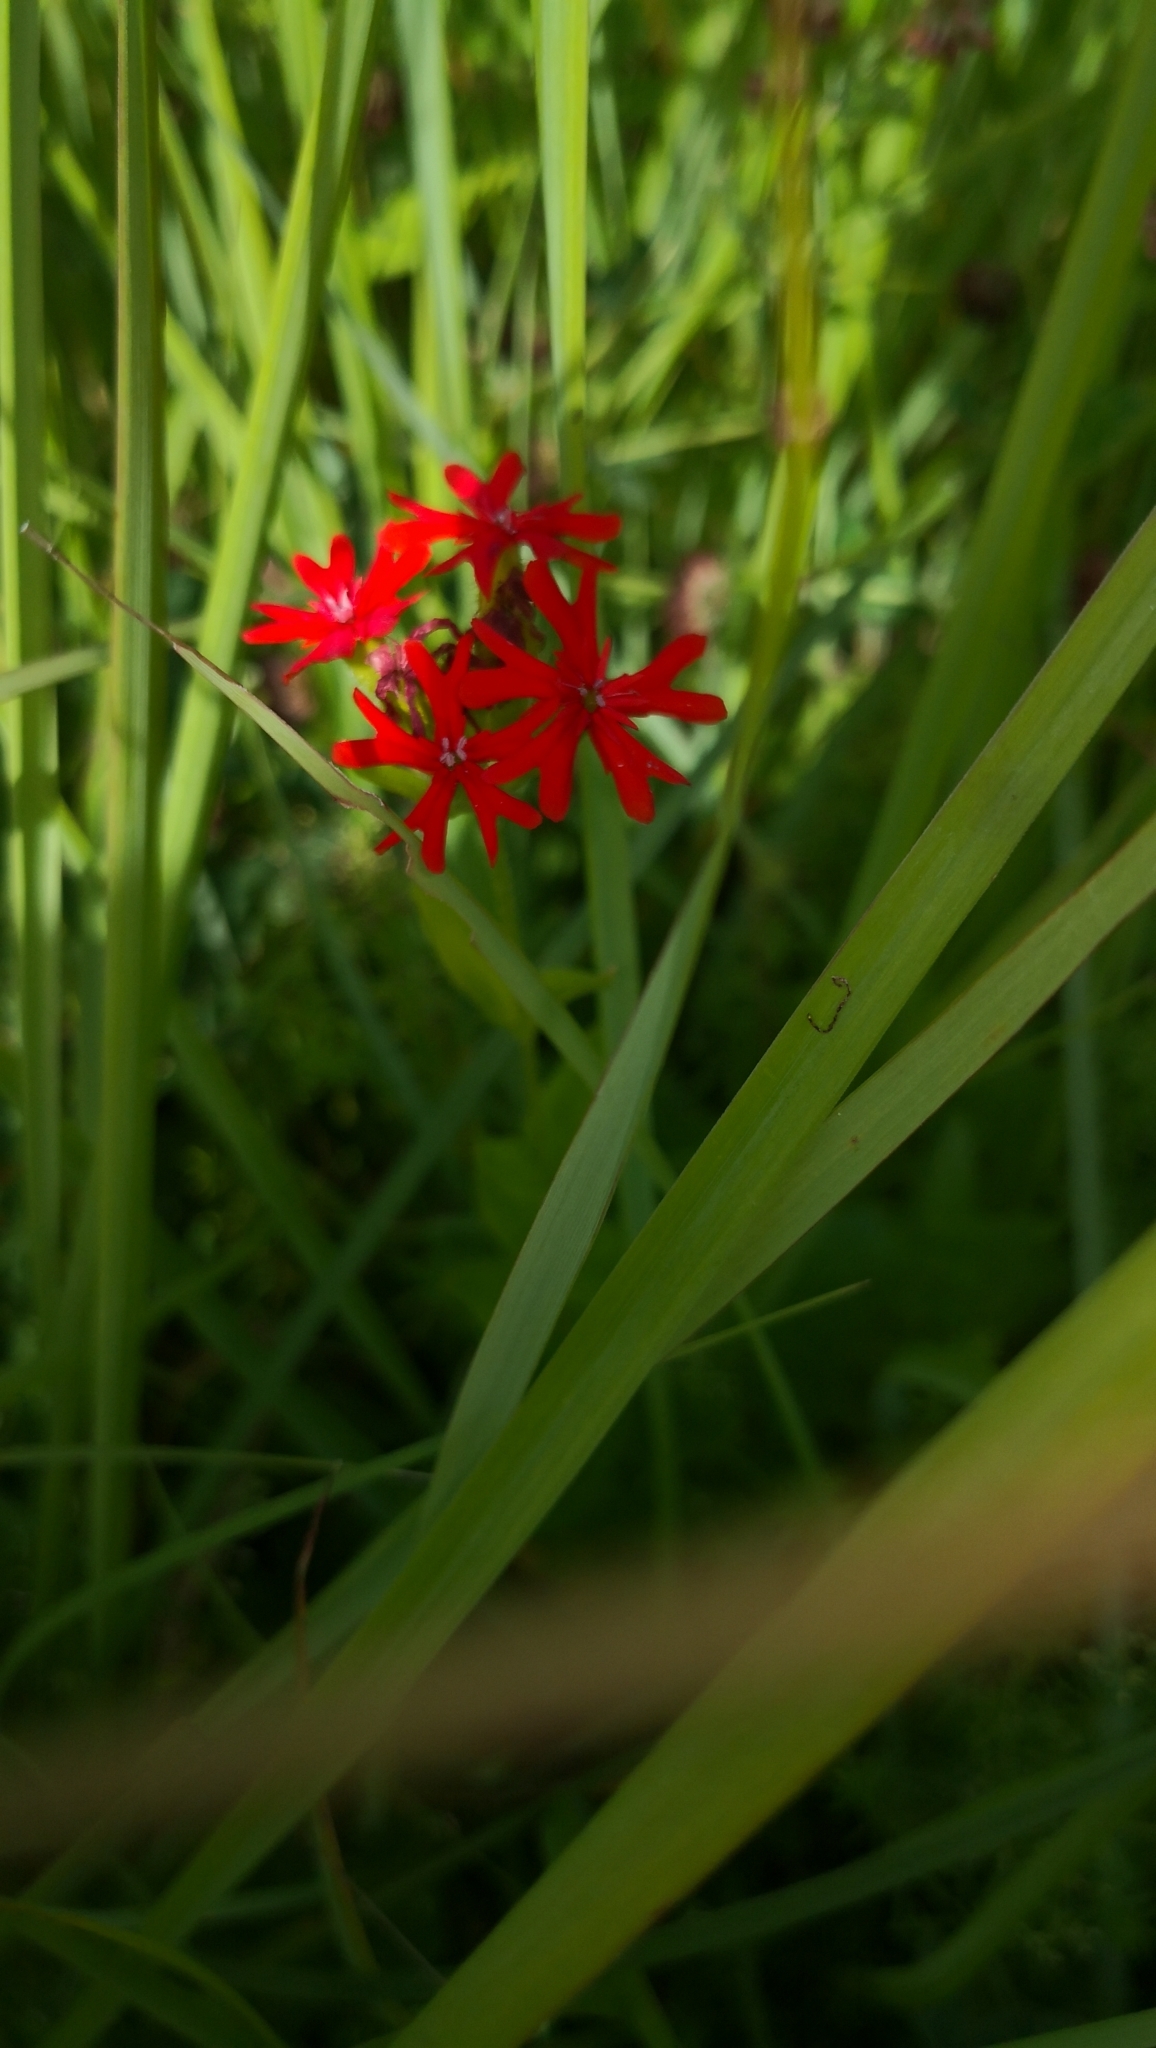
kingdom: Plantae
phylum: Tracheophyta
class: Magnoliopsida
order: Caryophyllales
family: Caryophyllaceae
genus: Silene
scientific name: Silene chalcedonica
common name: Maltese-cross
